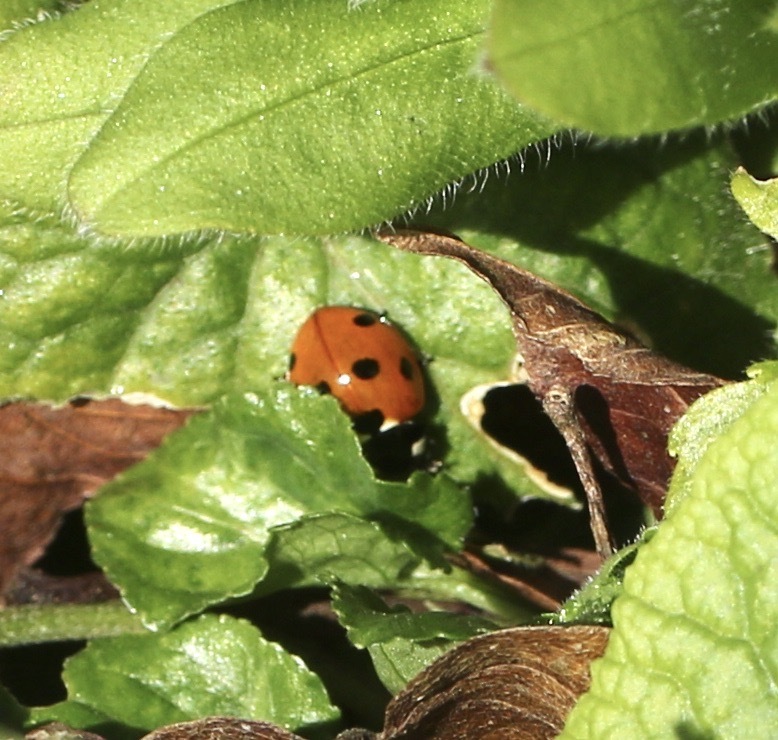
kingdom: Animalia
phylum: Arthropoda
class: Insecta
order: Coleoptera
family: Coccinellidae
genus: Coccinella
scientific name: Coccinella septempunctata
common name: Sevenspotted lady beetle
